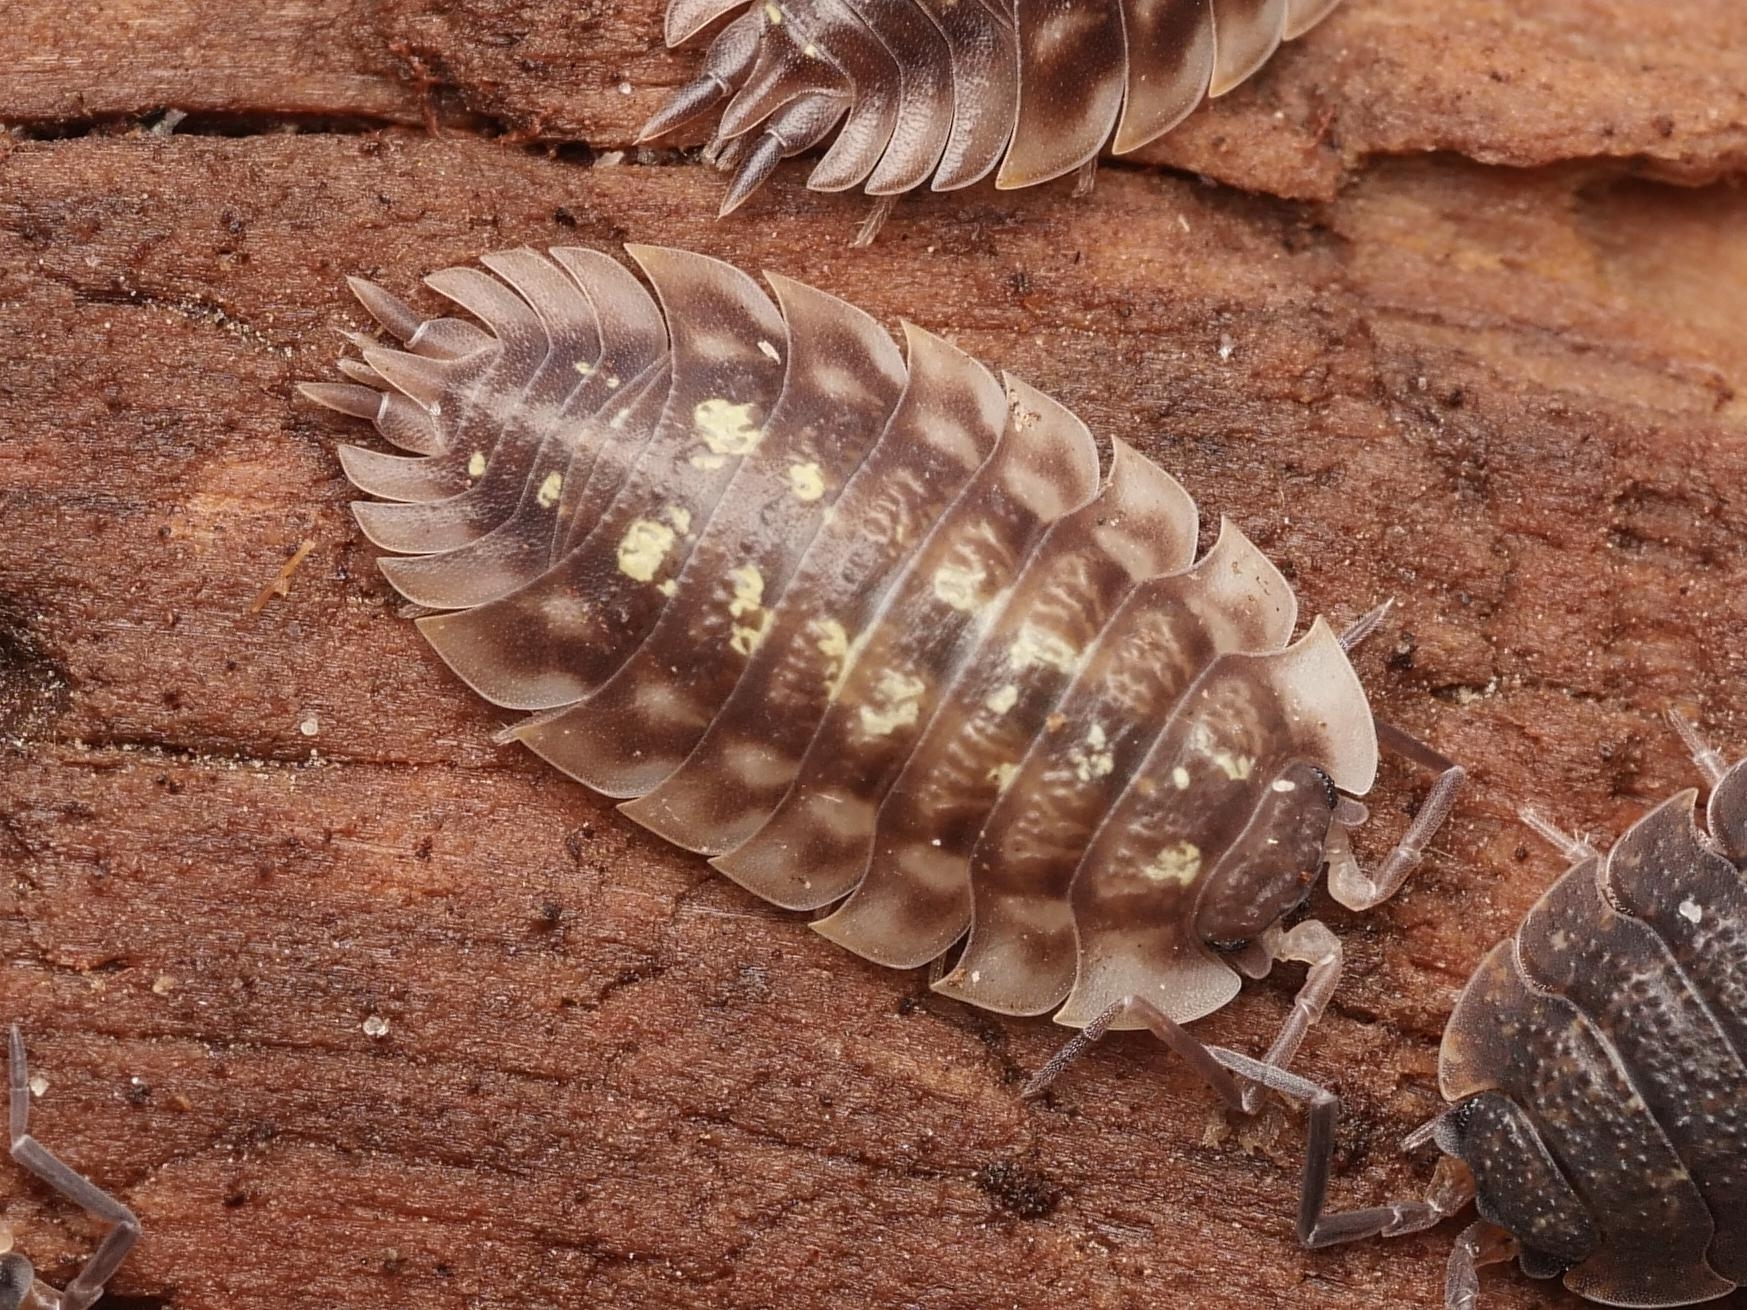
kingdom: Animalia
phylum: Arthropoda
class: Malacostraca
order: Isopoda
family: Oniscidae
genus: Oniscus
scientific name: Oniscus asellus
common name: Common shiny woodlouse
